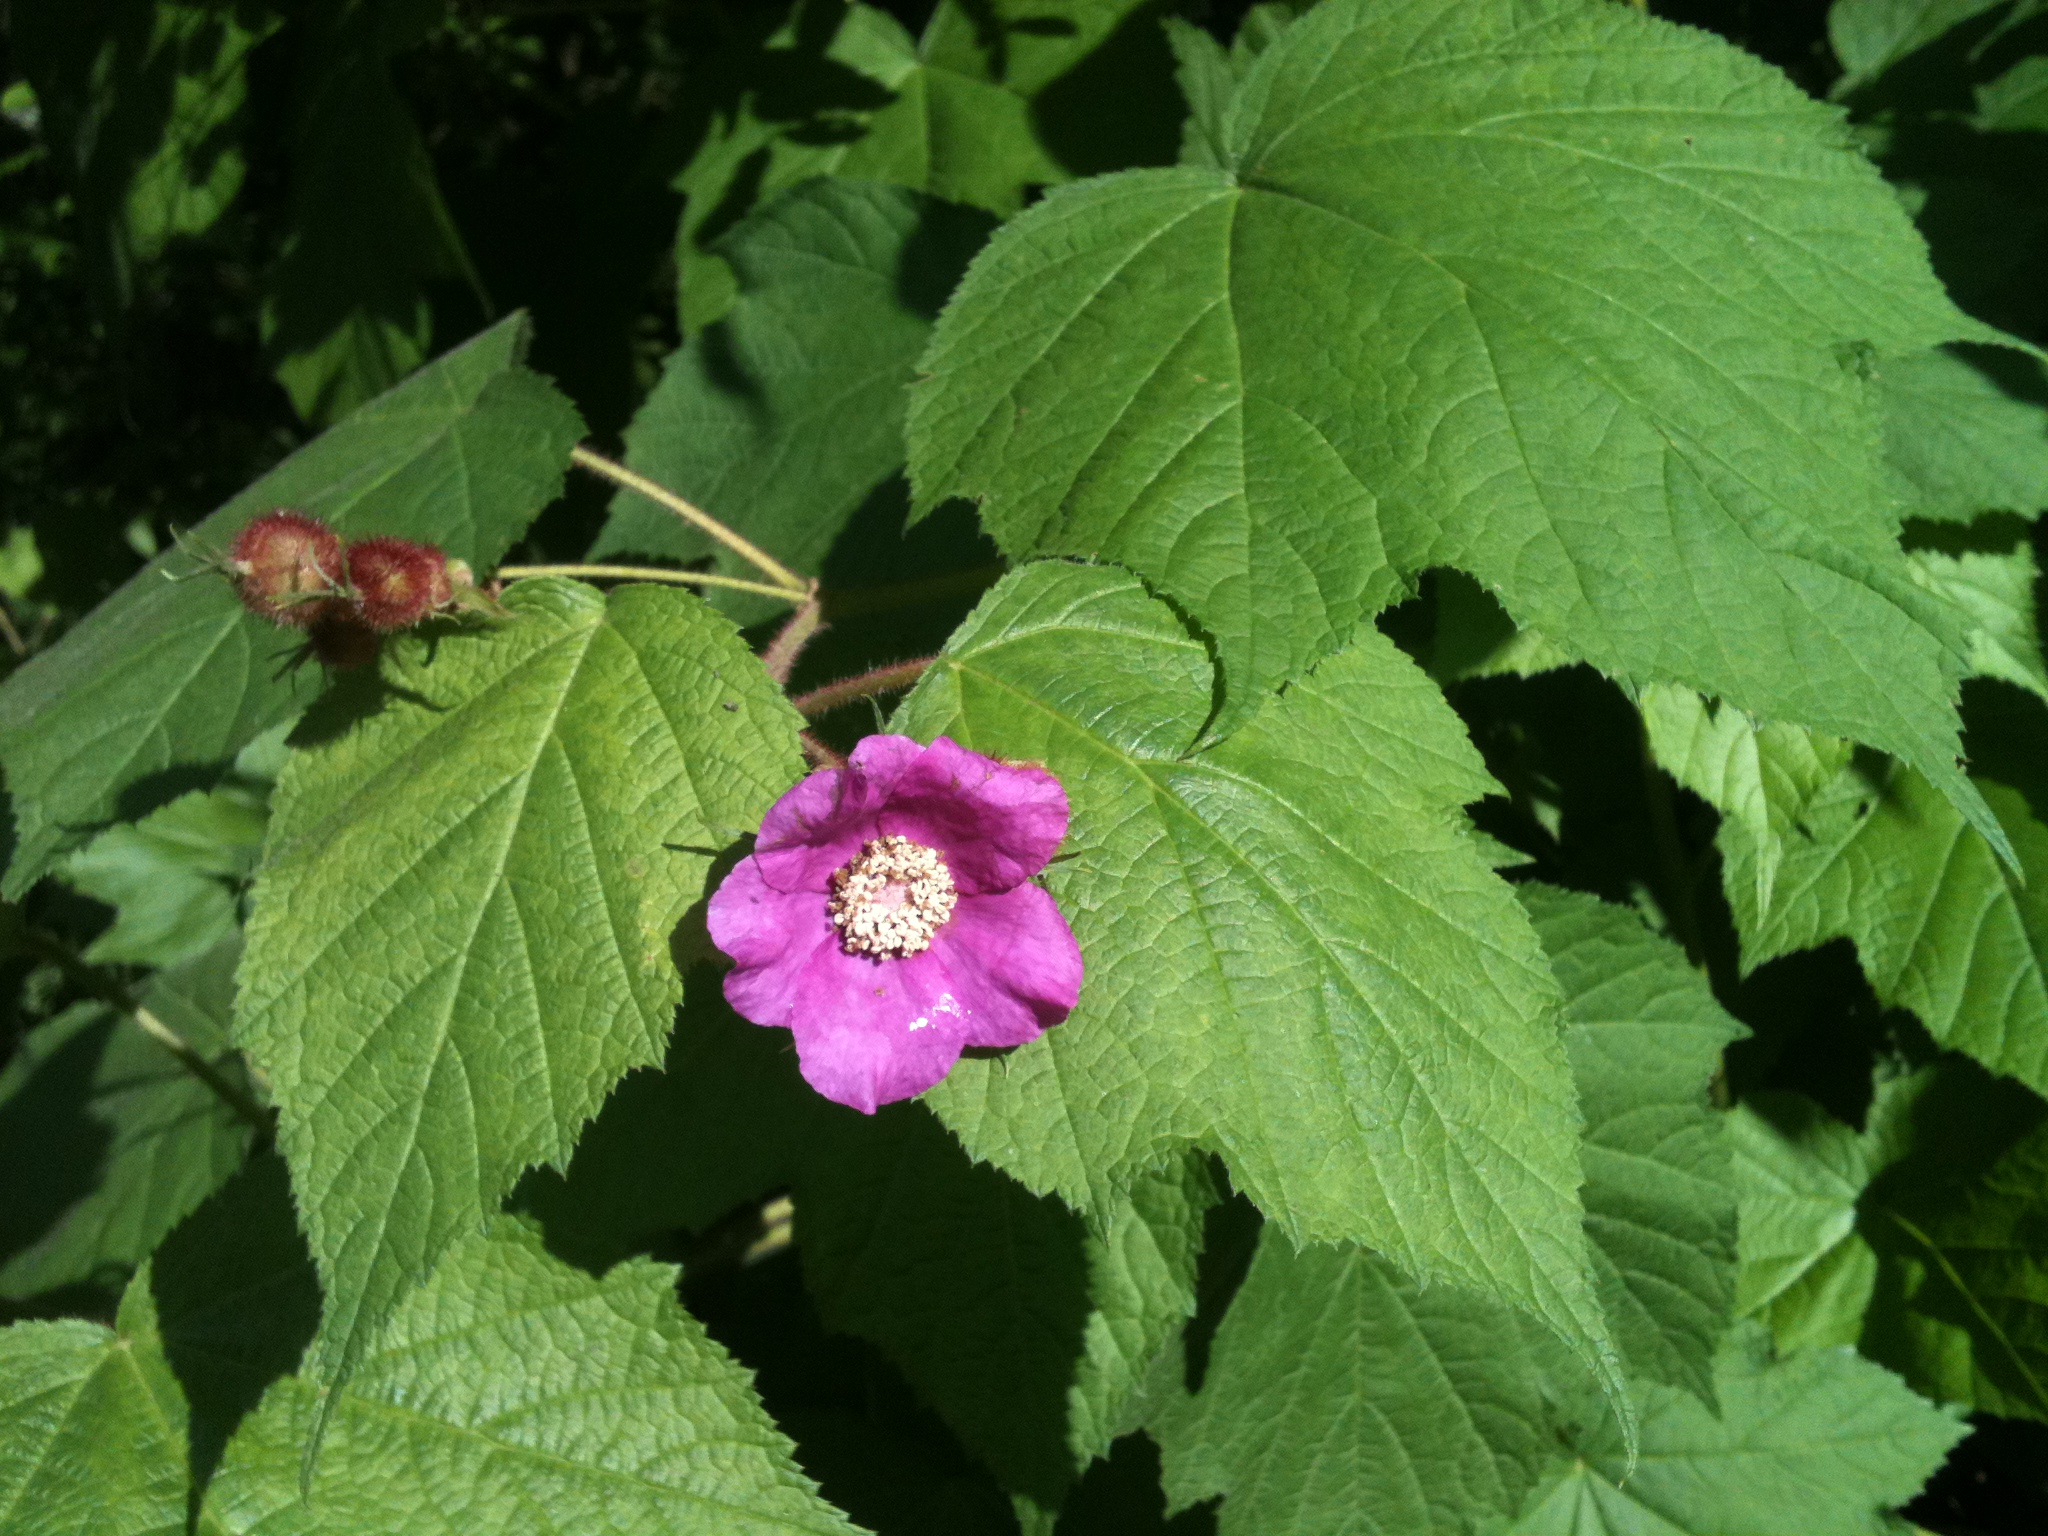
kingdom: Plantae
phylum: Tracheophyta
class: Magnoliopsida
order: Rosales
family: Rosaceae
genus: Rubus
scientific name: Rubus odoratus
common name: Purple-flowered raspberry
